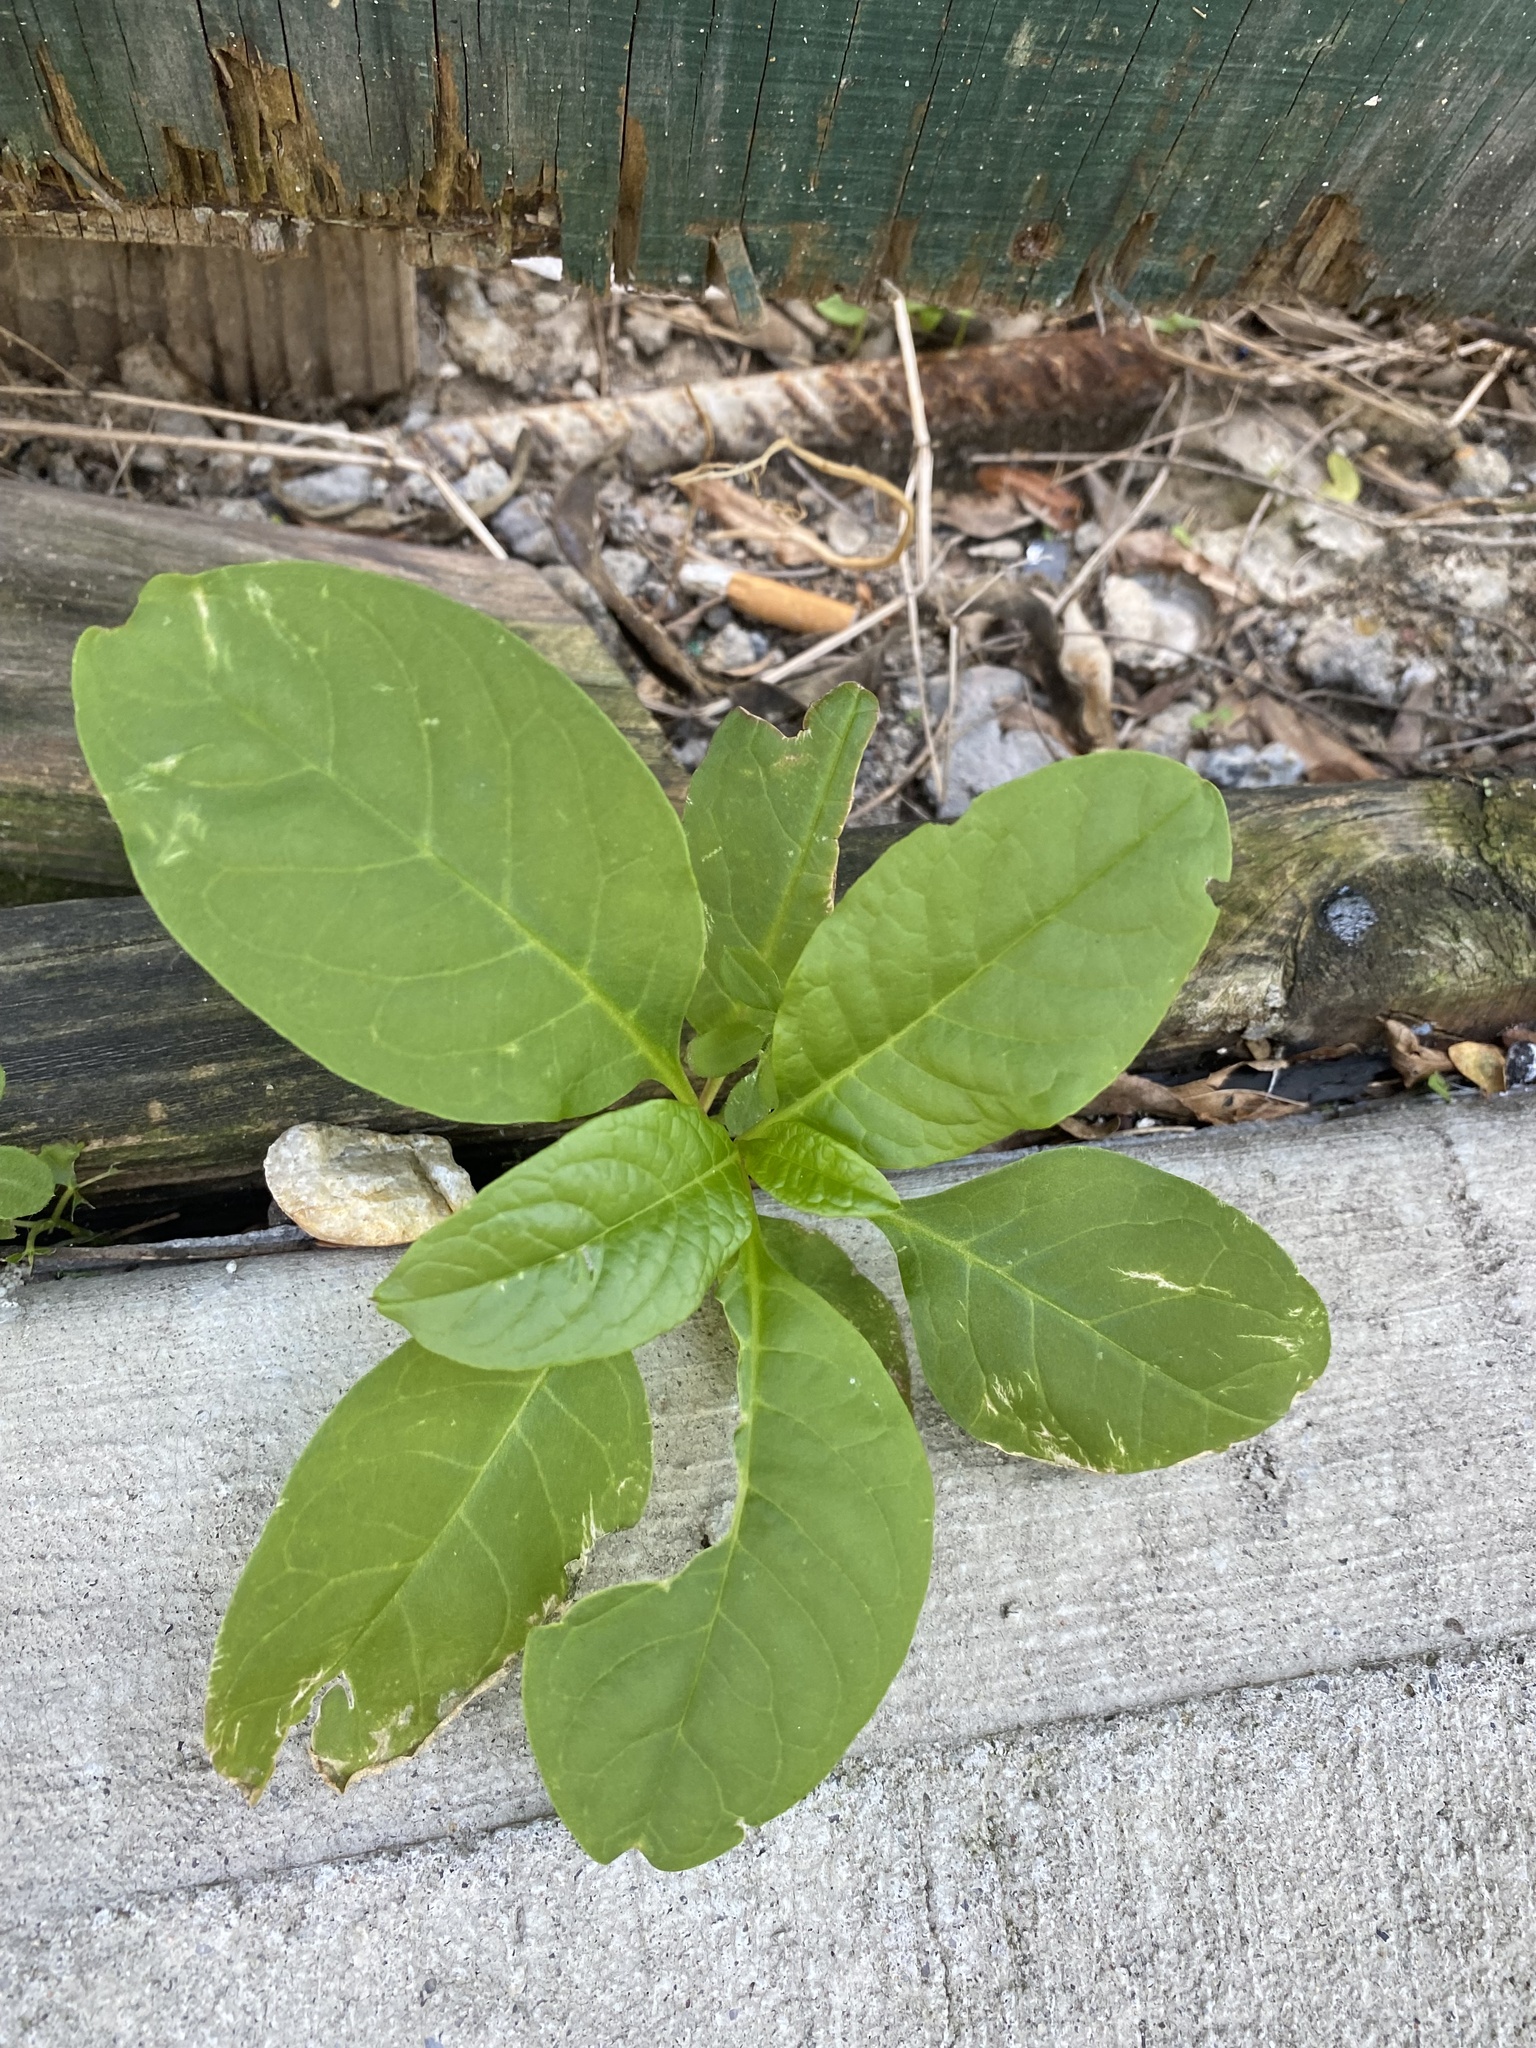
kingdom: Plantae
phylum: Tracheophyta
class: Magnoliopsida
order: Caryophyllales
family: Phytolaccaceae
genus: Phytolacca
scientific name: Phytolacca americana
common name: American pokeweed
